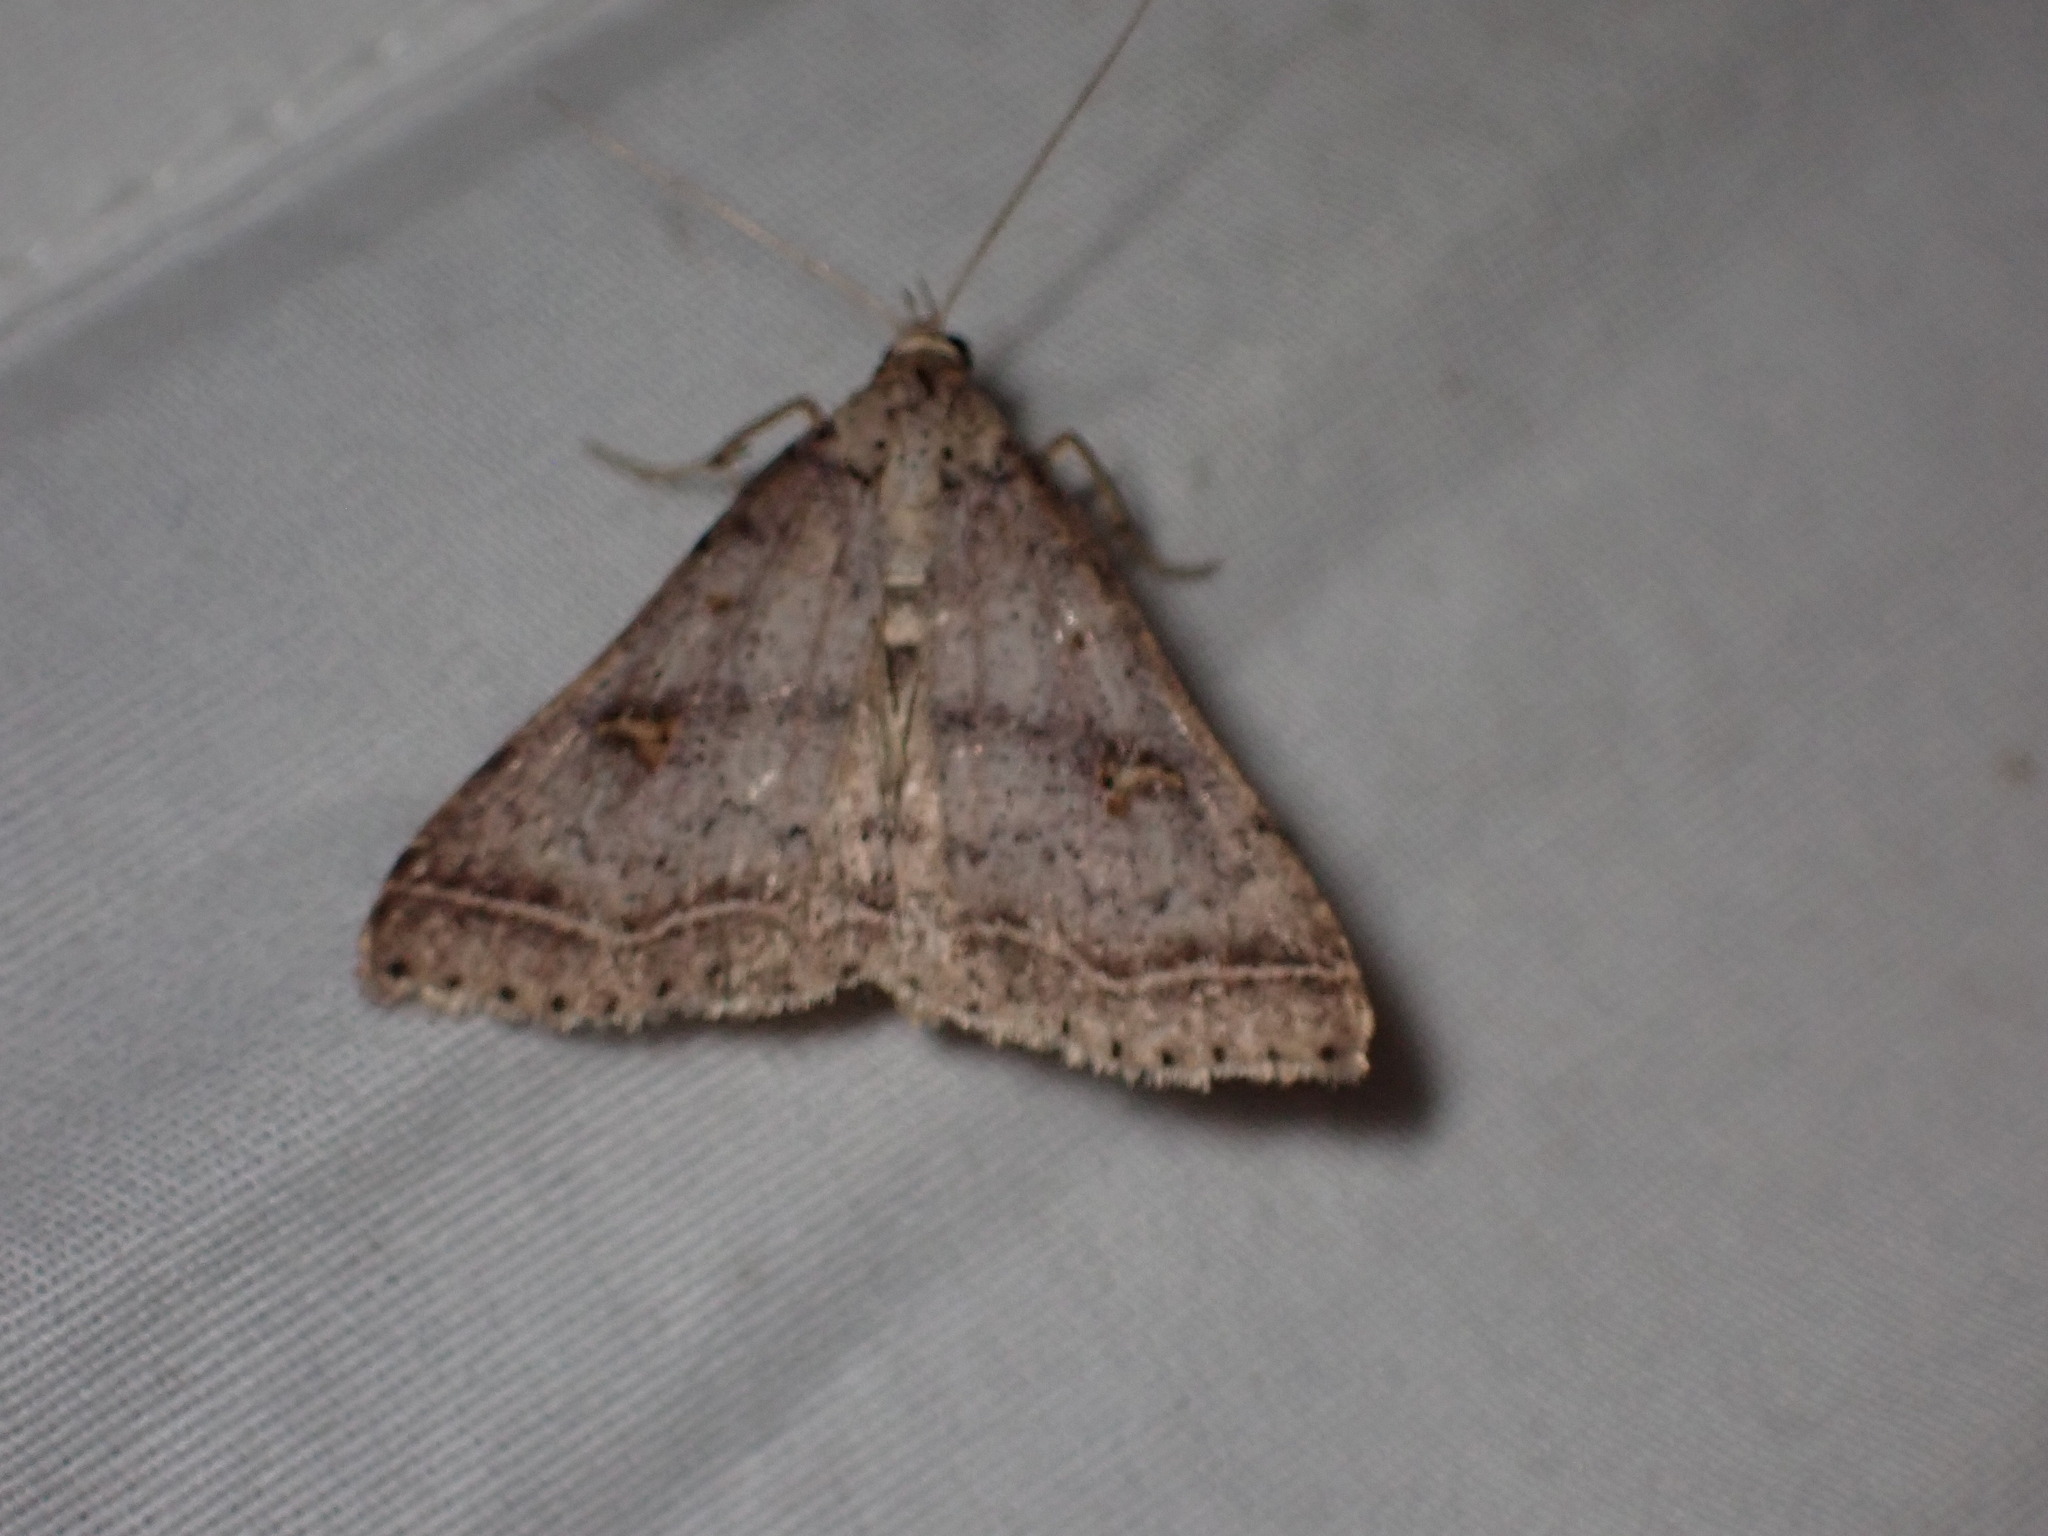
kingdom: Animalia
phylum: Arthropoda
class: Insecta
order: Lepidoptera
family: Erebidae
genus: Renia
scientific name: Renia flavipunctalis
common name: Yellow-spotted renia moth
